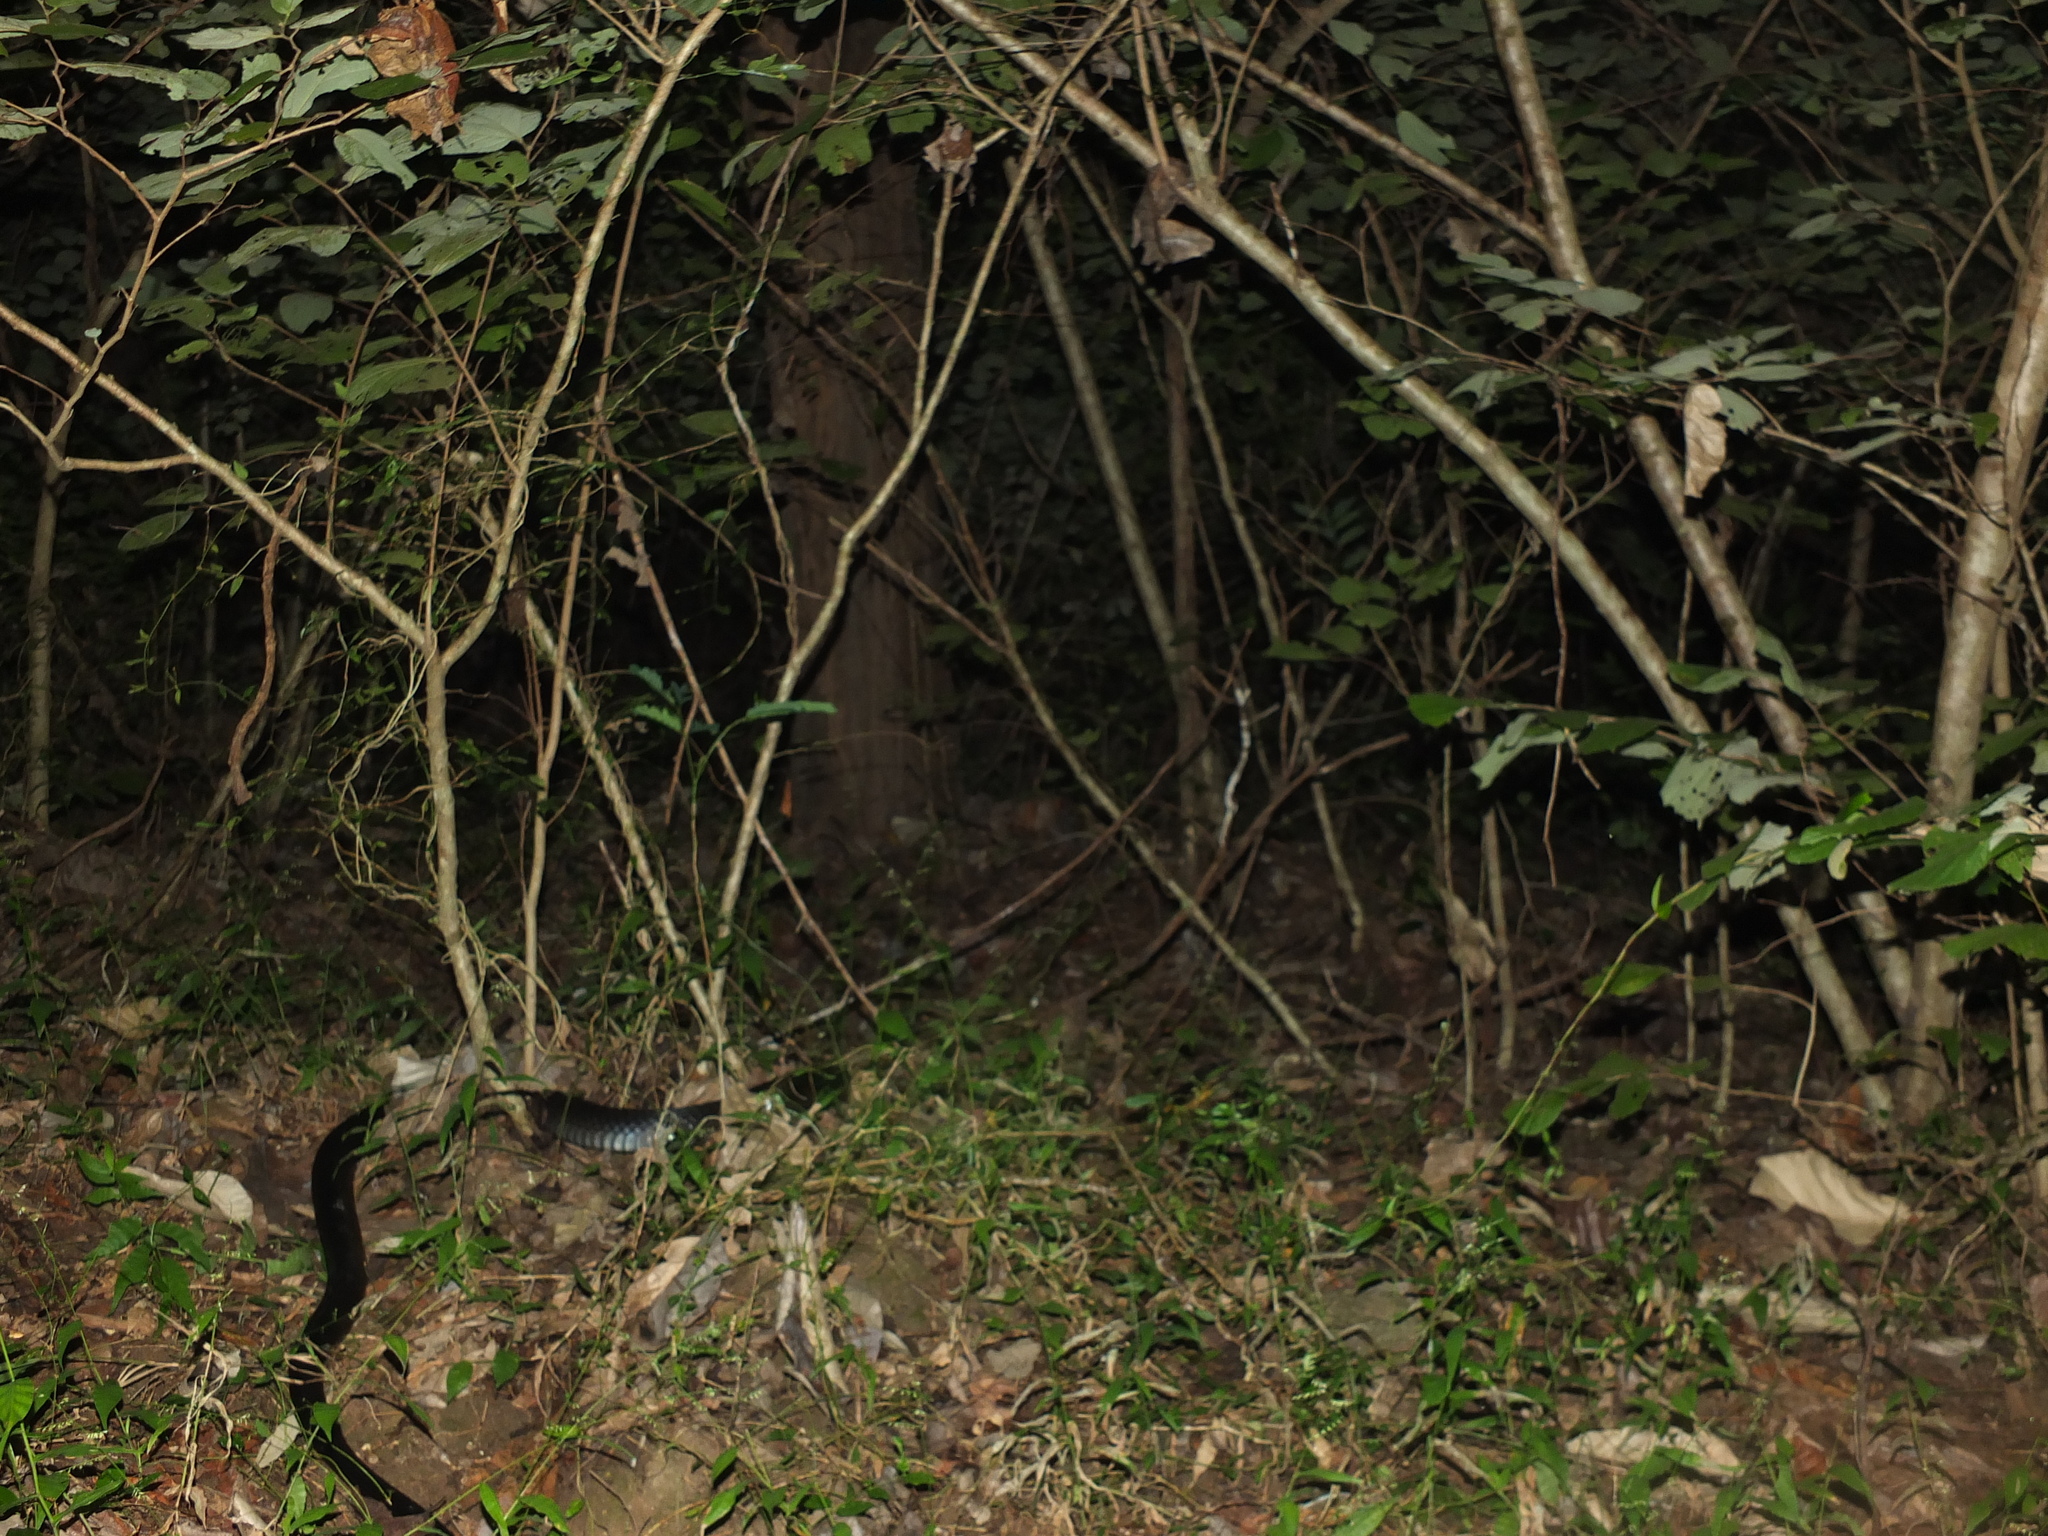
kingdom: Animalia
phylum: Chordata
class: Squamata
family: Elapidae
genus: Ophiophagus
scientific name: Ophiophagus hannah
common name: Hamadryad
